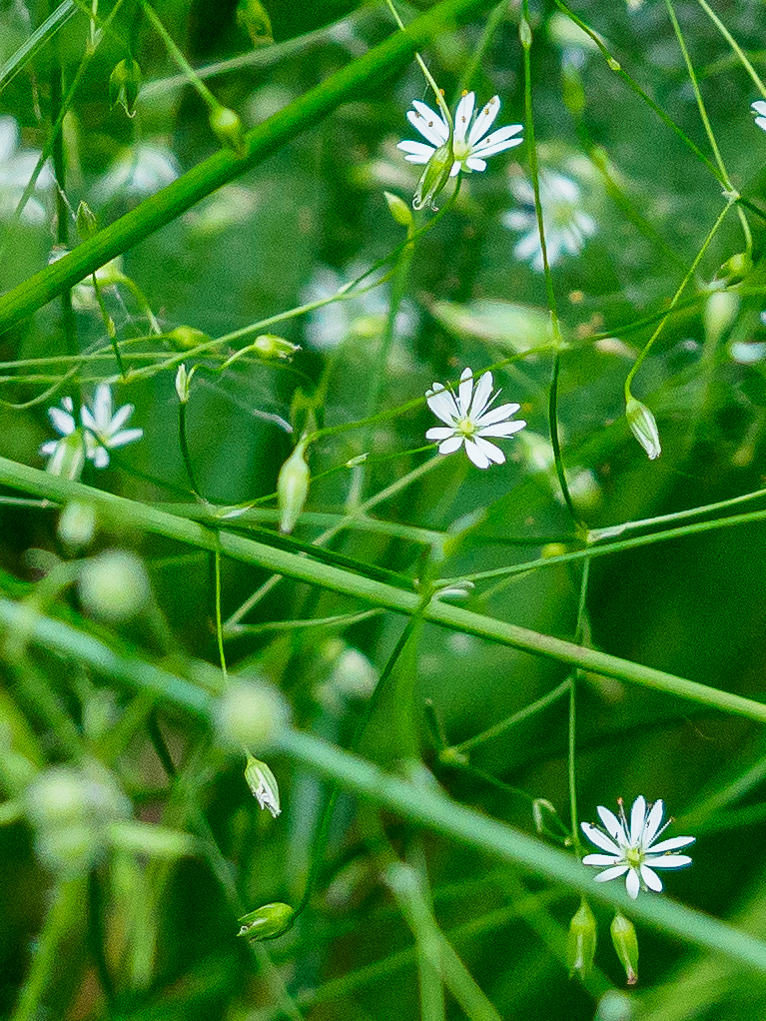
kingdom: Plantae
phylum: Tracheophyta
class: Magnoliopsida
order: Caryophyllales
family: Caryophyllaceae
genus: Stellaria
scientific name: Stellaria graminea
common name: Grass-like starwort
